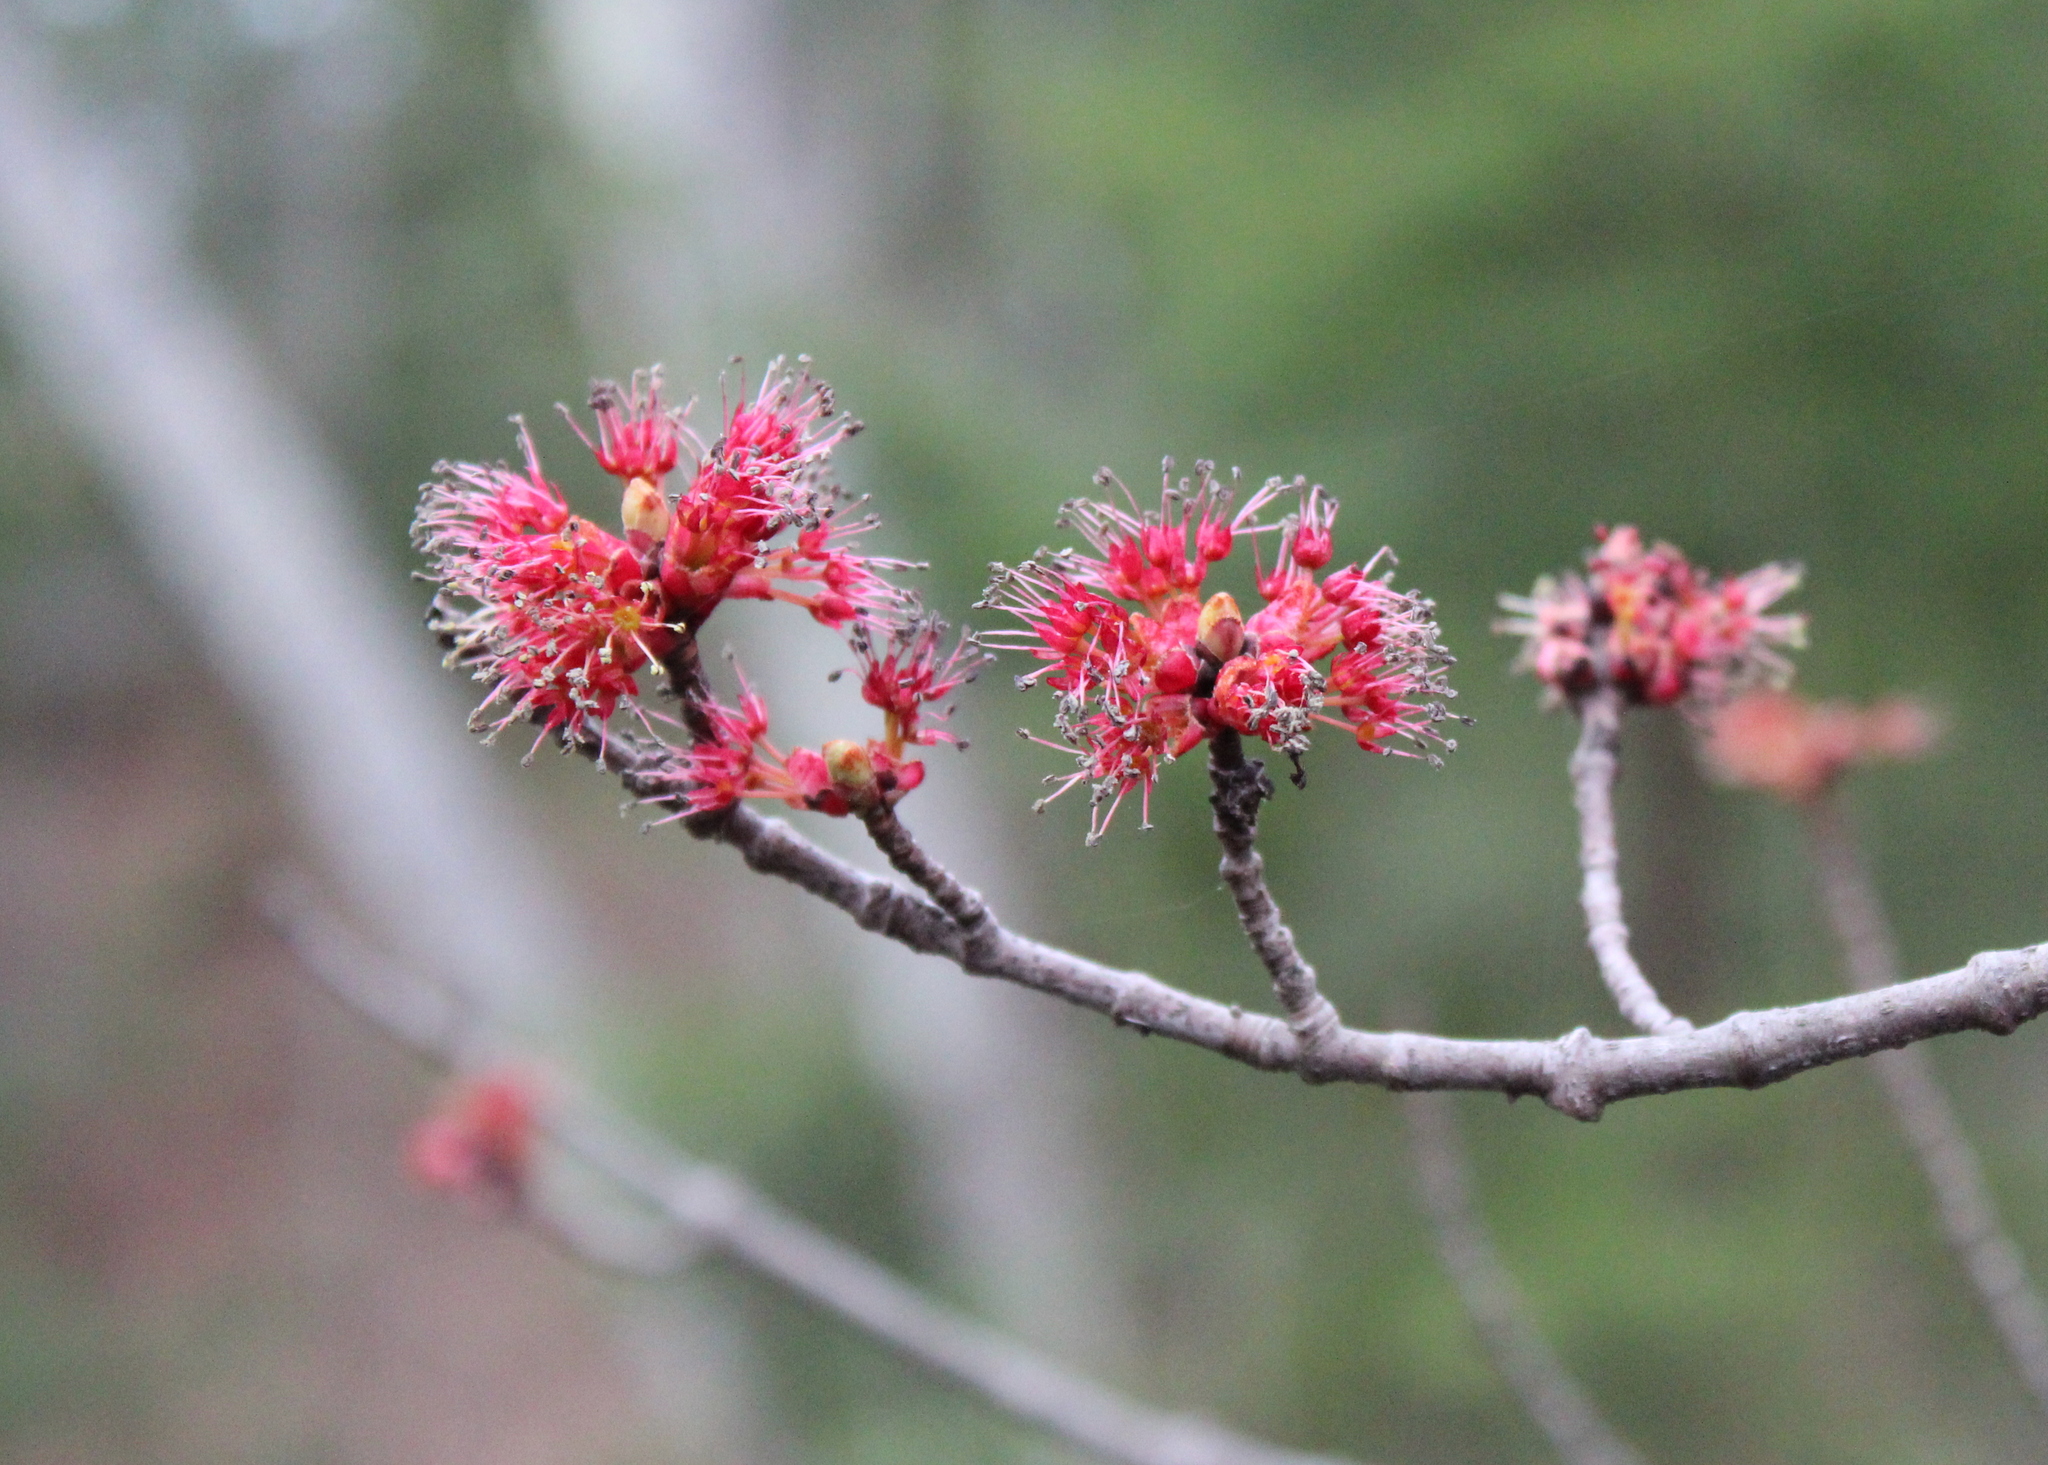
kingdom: Plantae
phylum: Tracheophyta
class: Magnoliopsida
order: Sapindales
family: Sapindaceae
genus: Acer
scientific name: Acer rubrum
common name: Red maple
